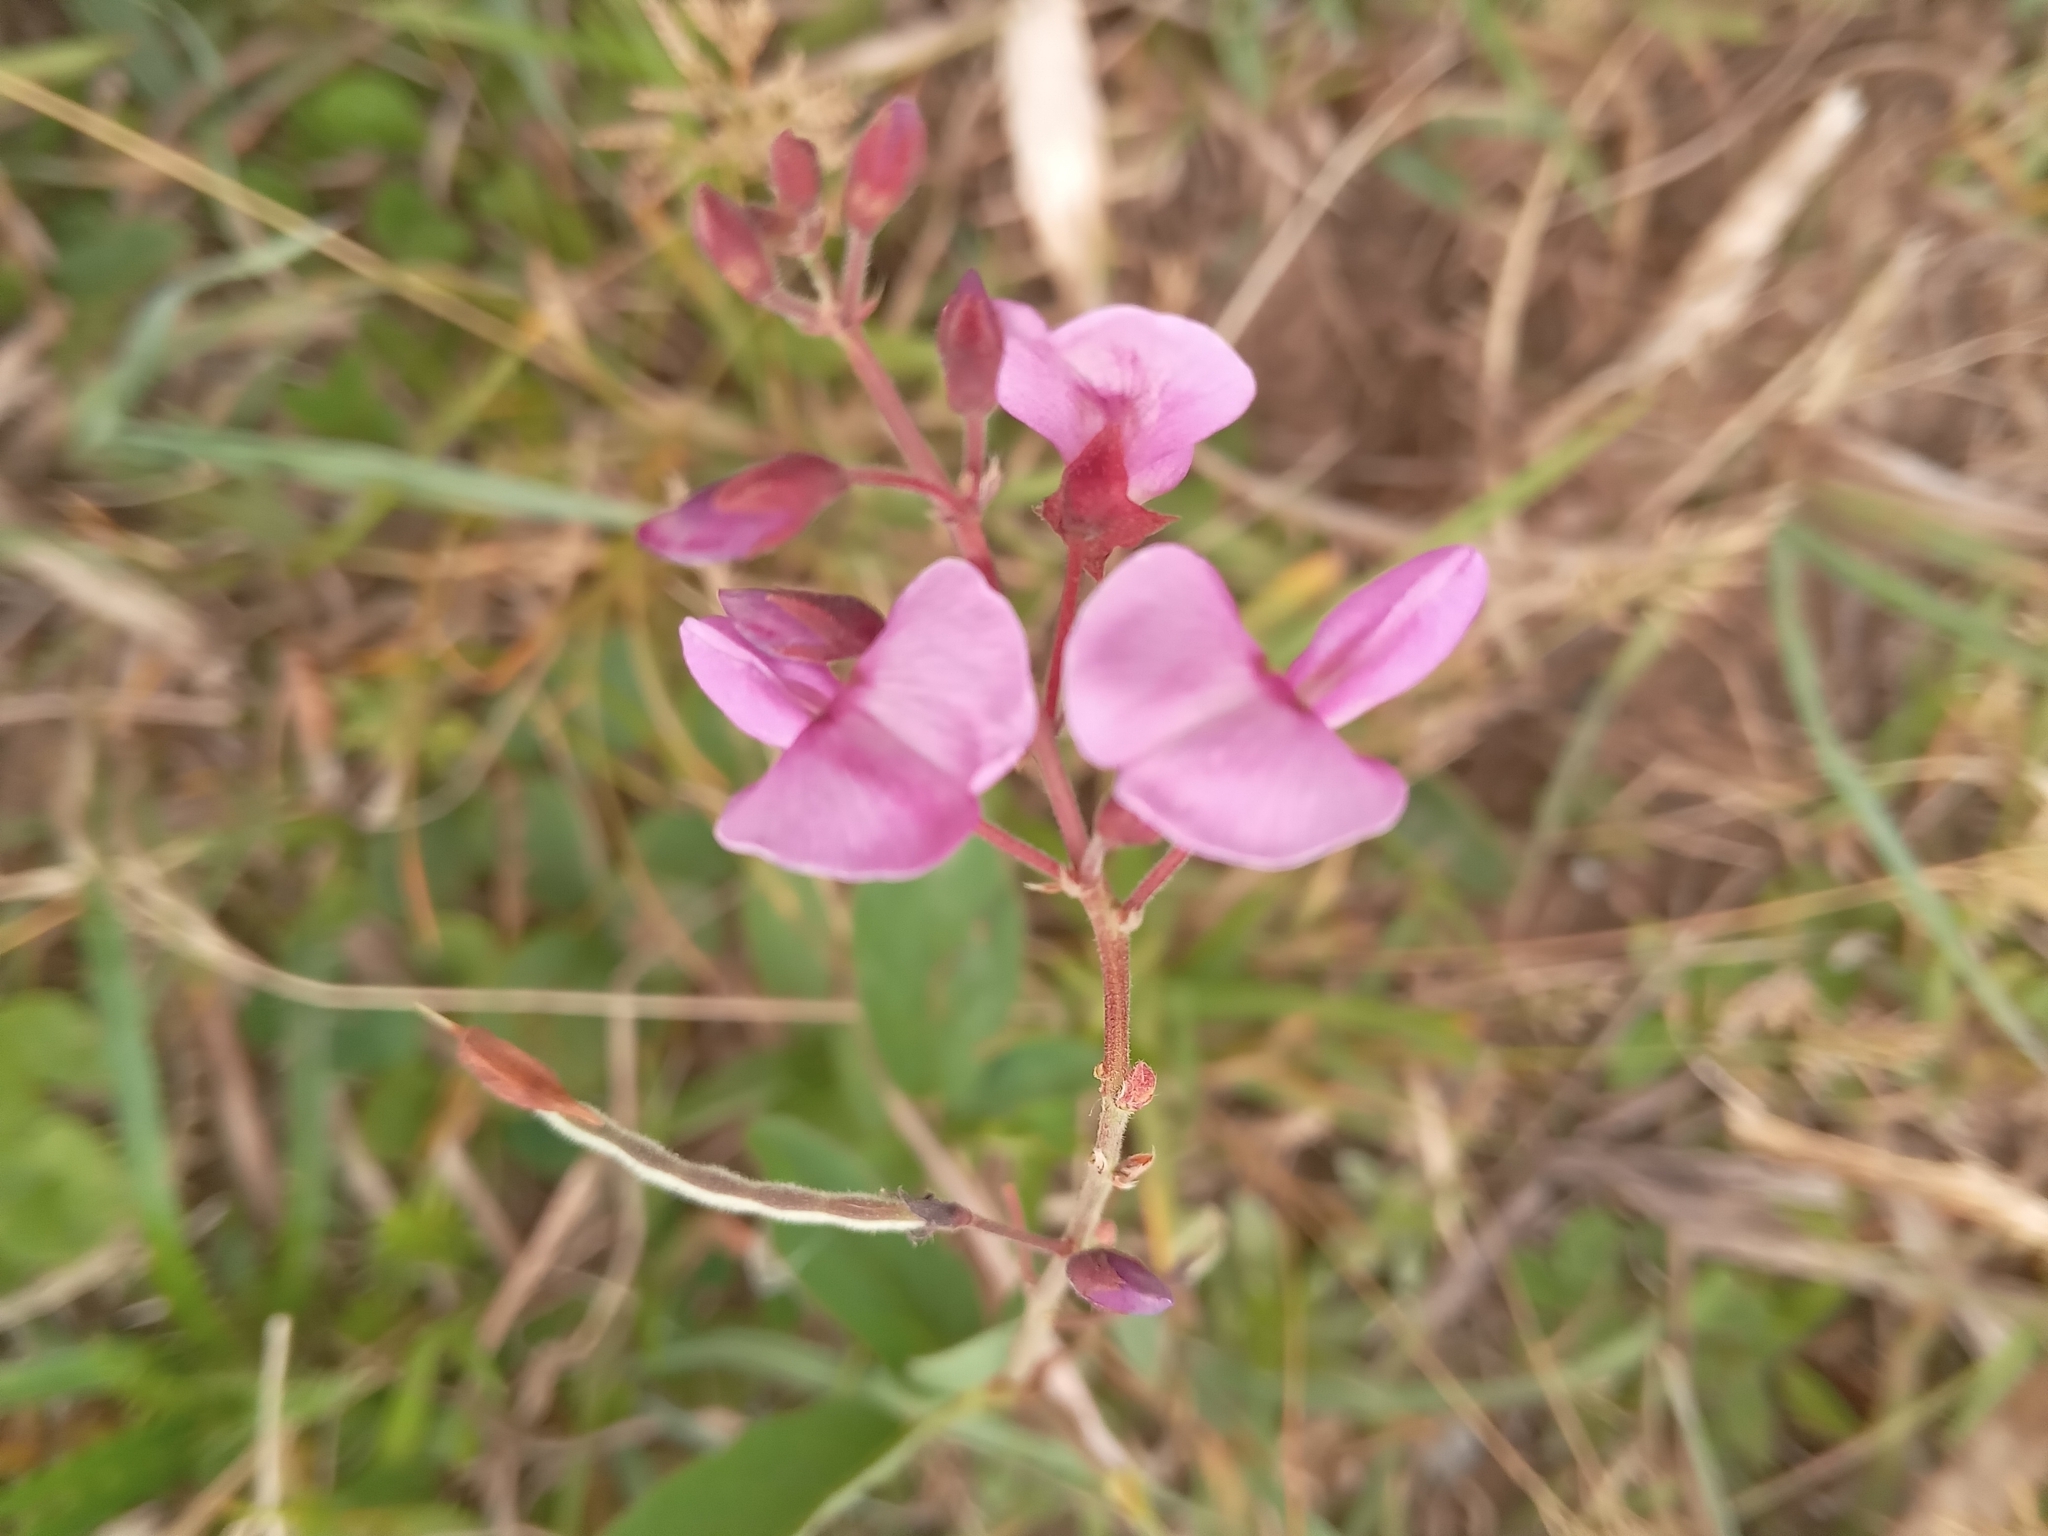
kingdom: Plantae
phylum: Tracheophyta
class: Magnoliopsida
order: Fabales
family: Fabaceae
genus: Desmodium
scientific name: Desmodium incanum
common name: Tickclover
